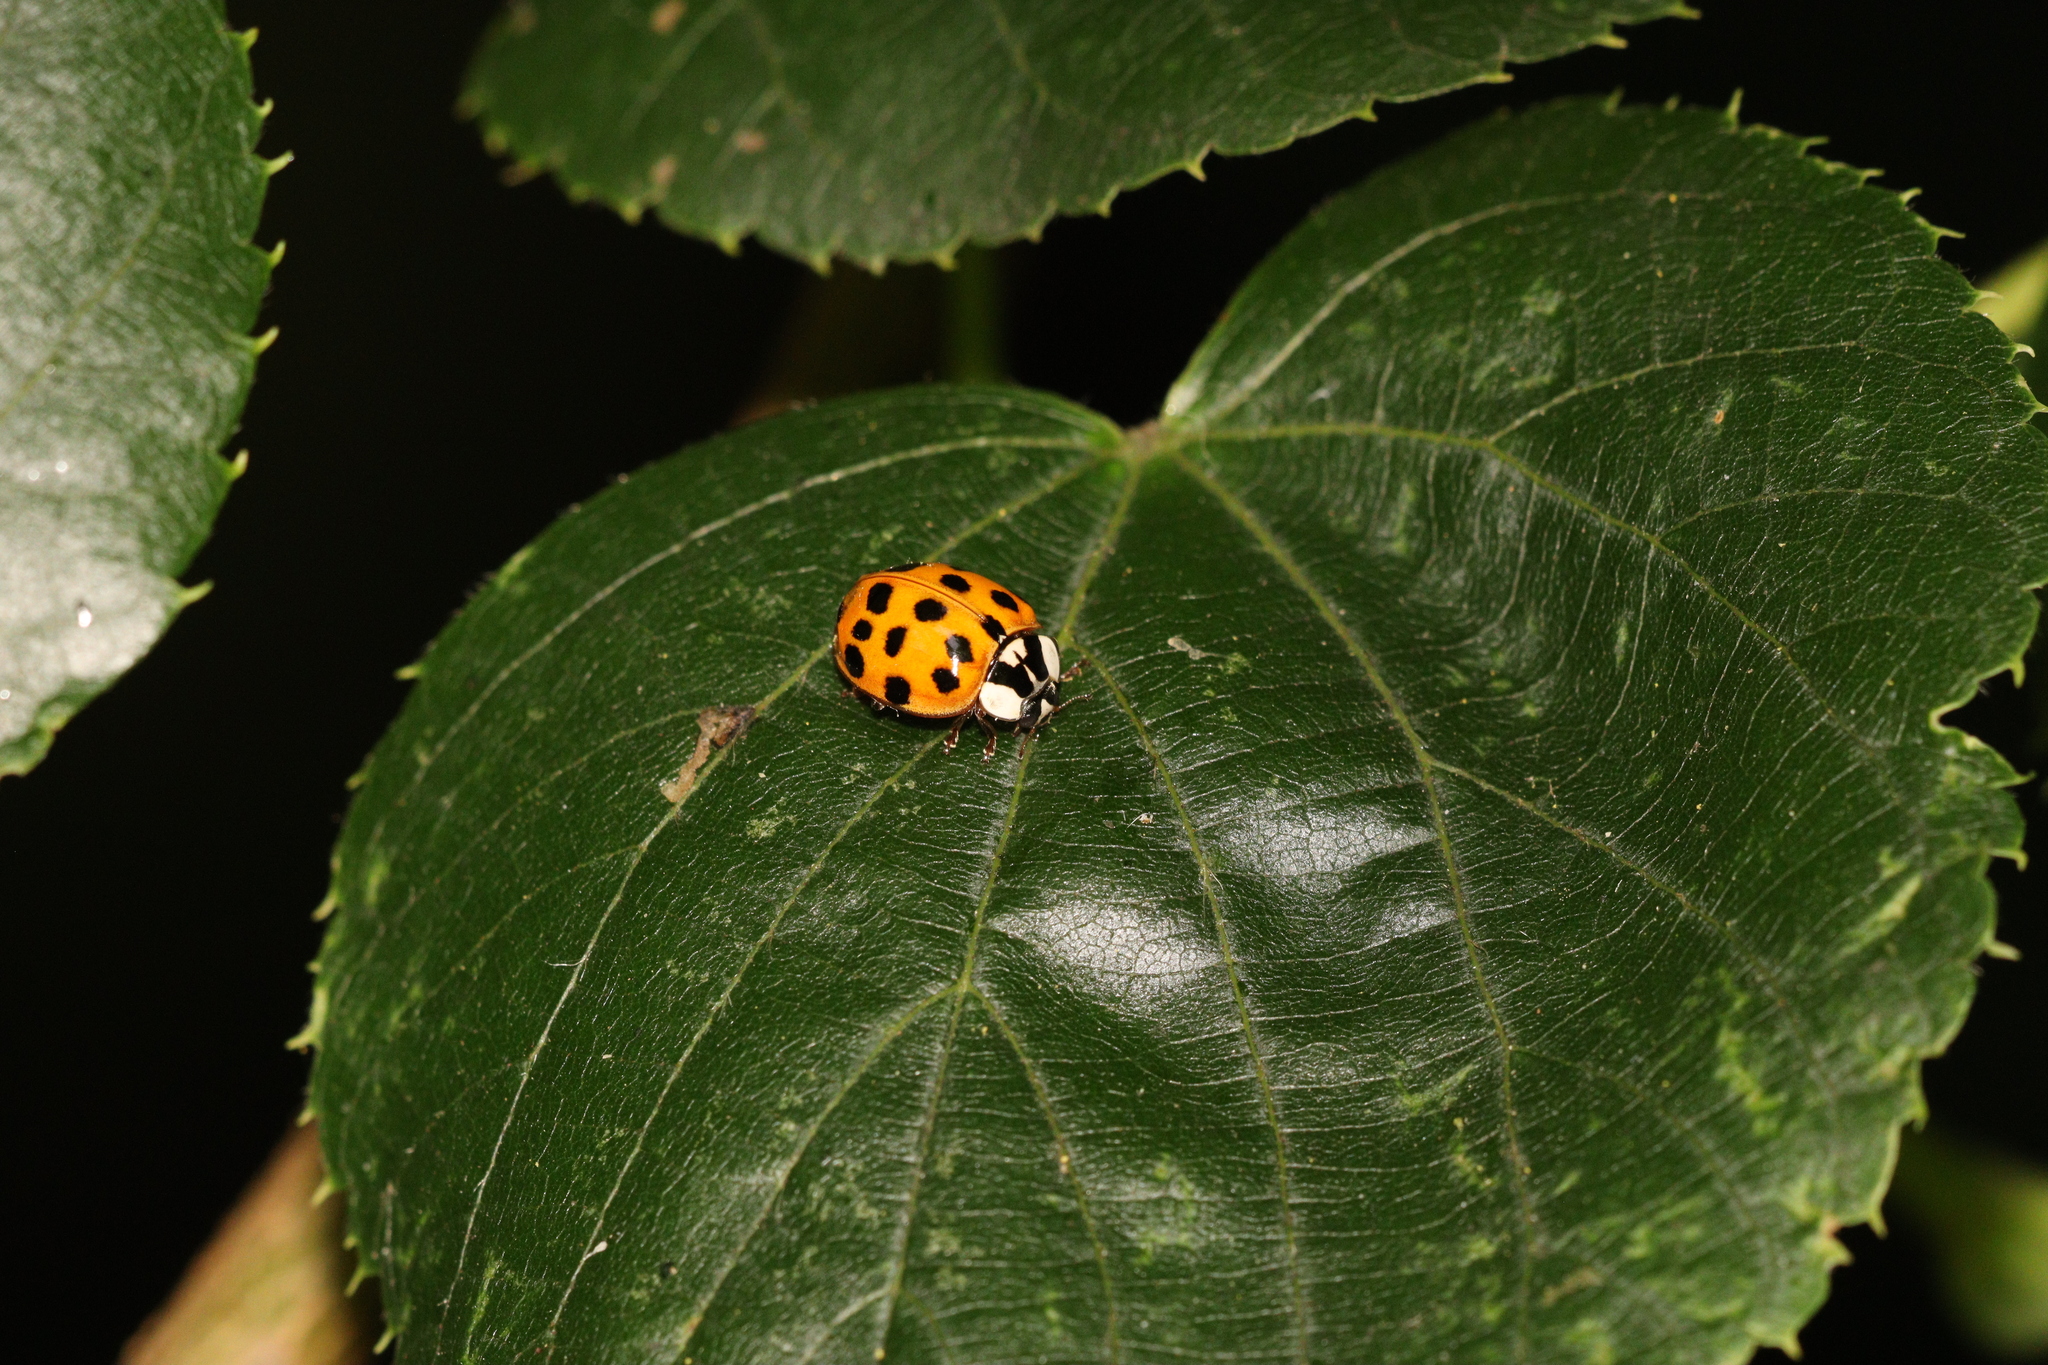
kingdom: Animalia
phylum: Arthropoda
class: Insecta
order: Coleoptera
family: Coccinellidae
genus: Harmonia
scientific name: Harmonia axyridis
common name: Harlequin ladybird
